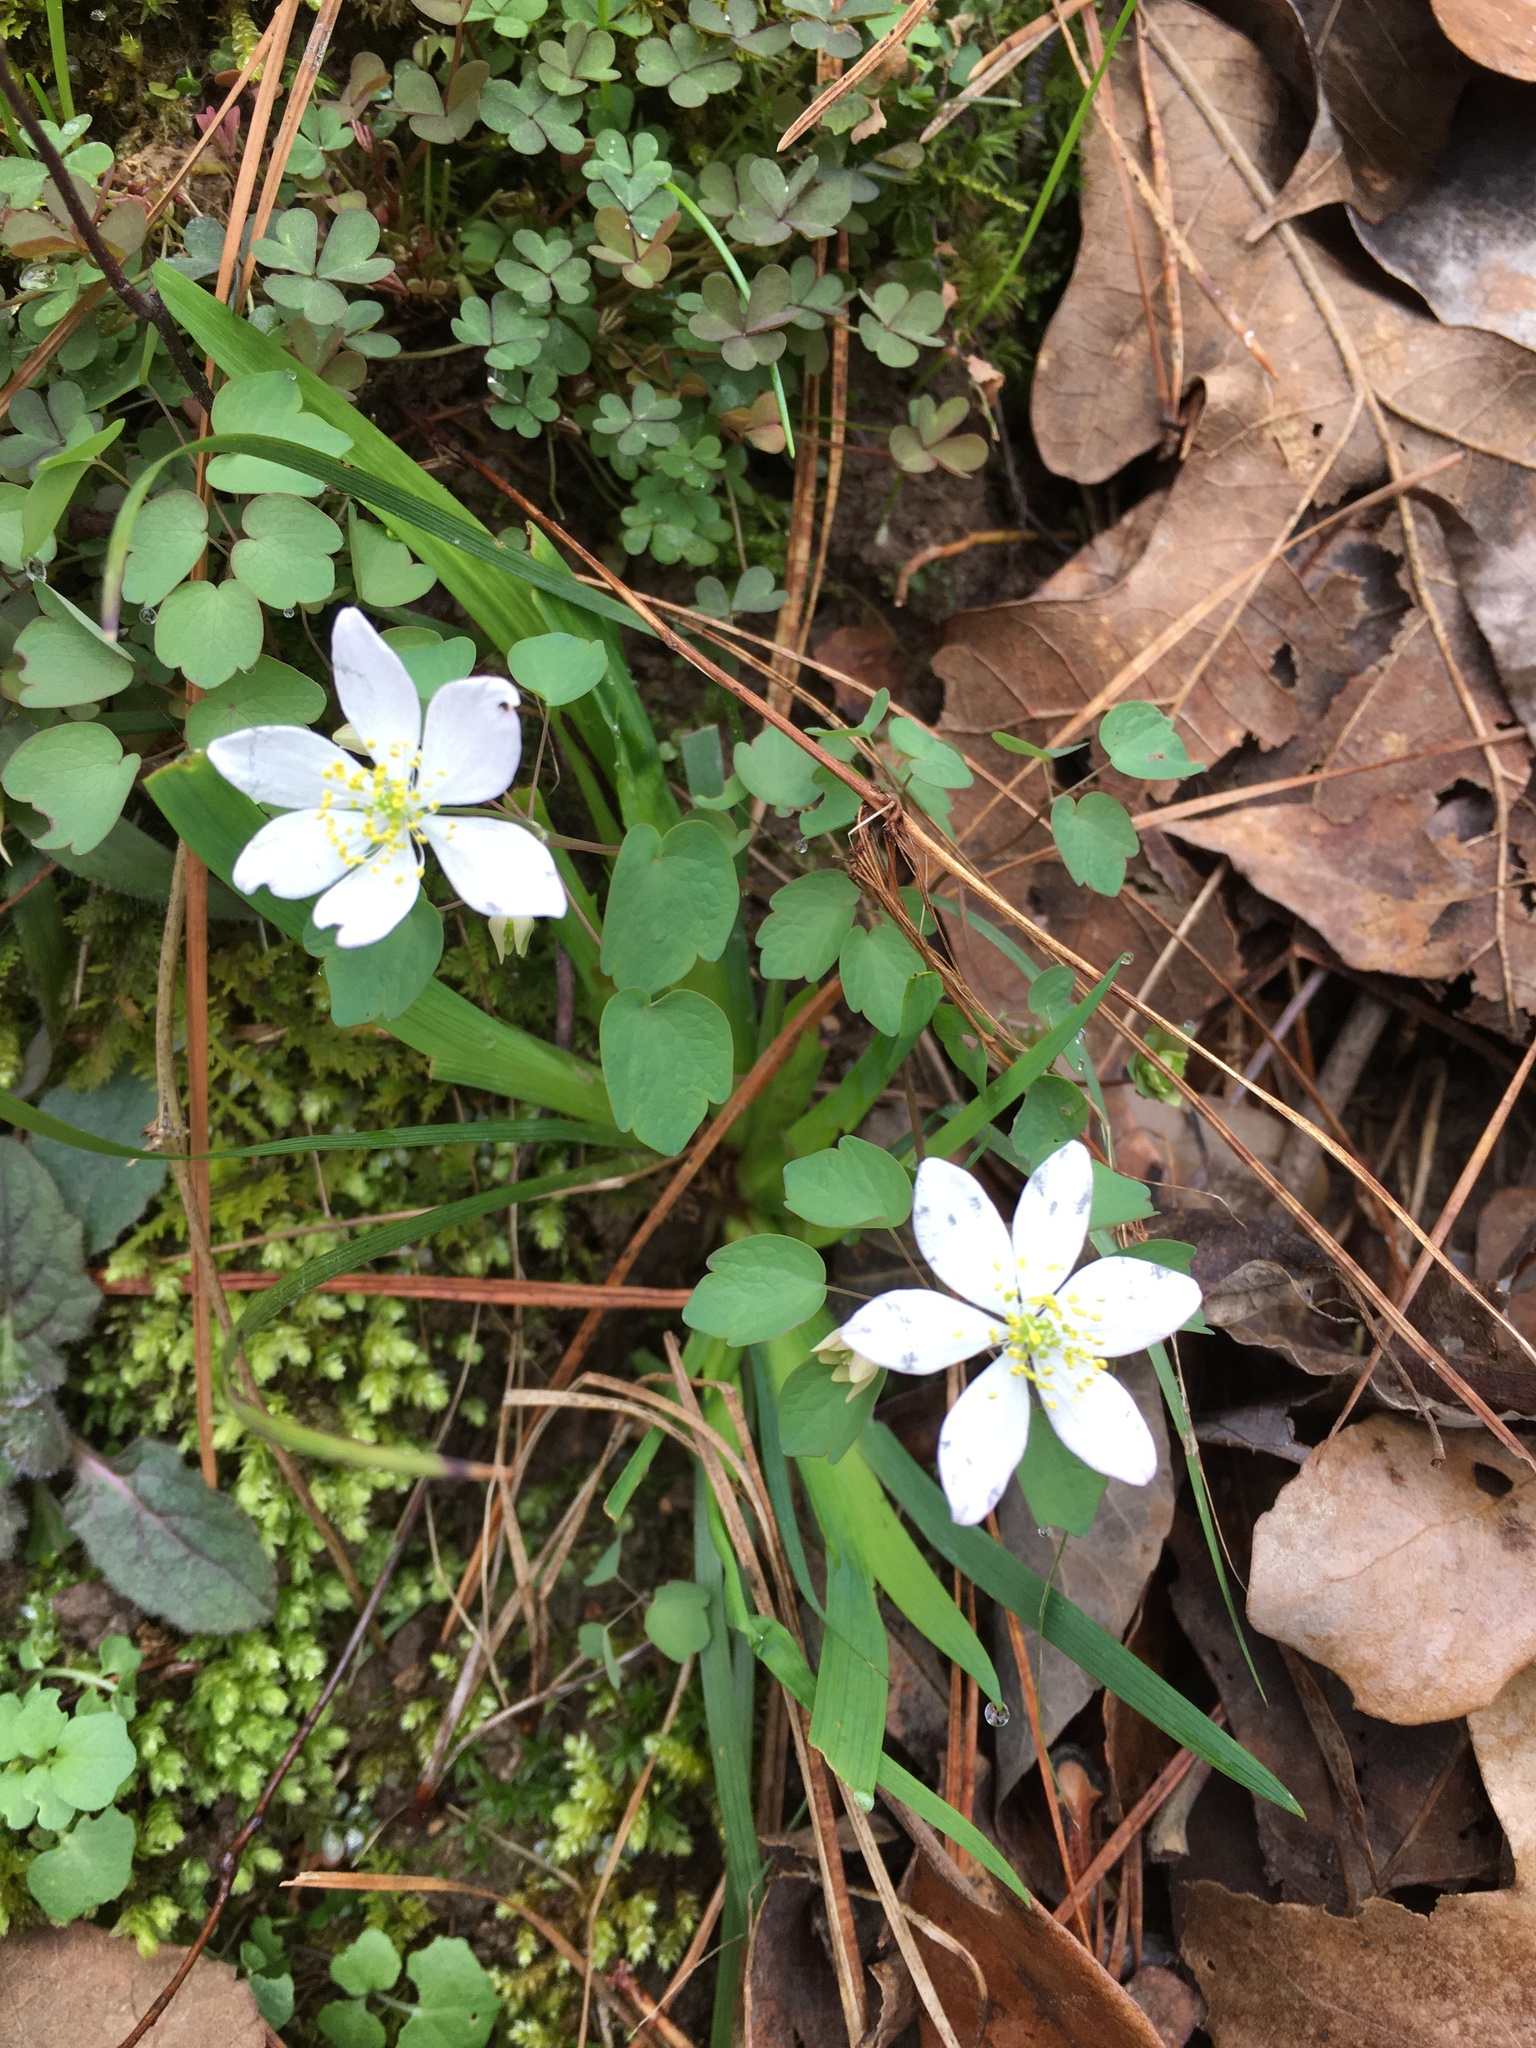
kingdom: Plantae
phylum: Tracheophyta
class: Magnoliopsida
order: Ranunculales
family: Ranunculaceae
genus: Thalictrum
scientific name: Thalictrum thalictroides
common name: Rue-anemone
